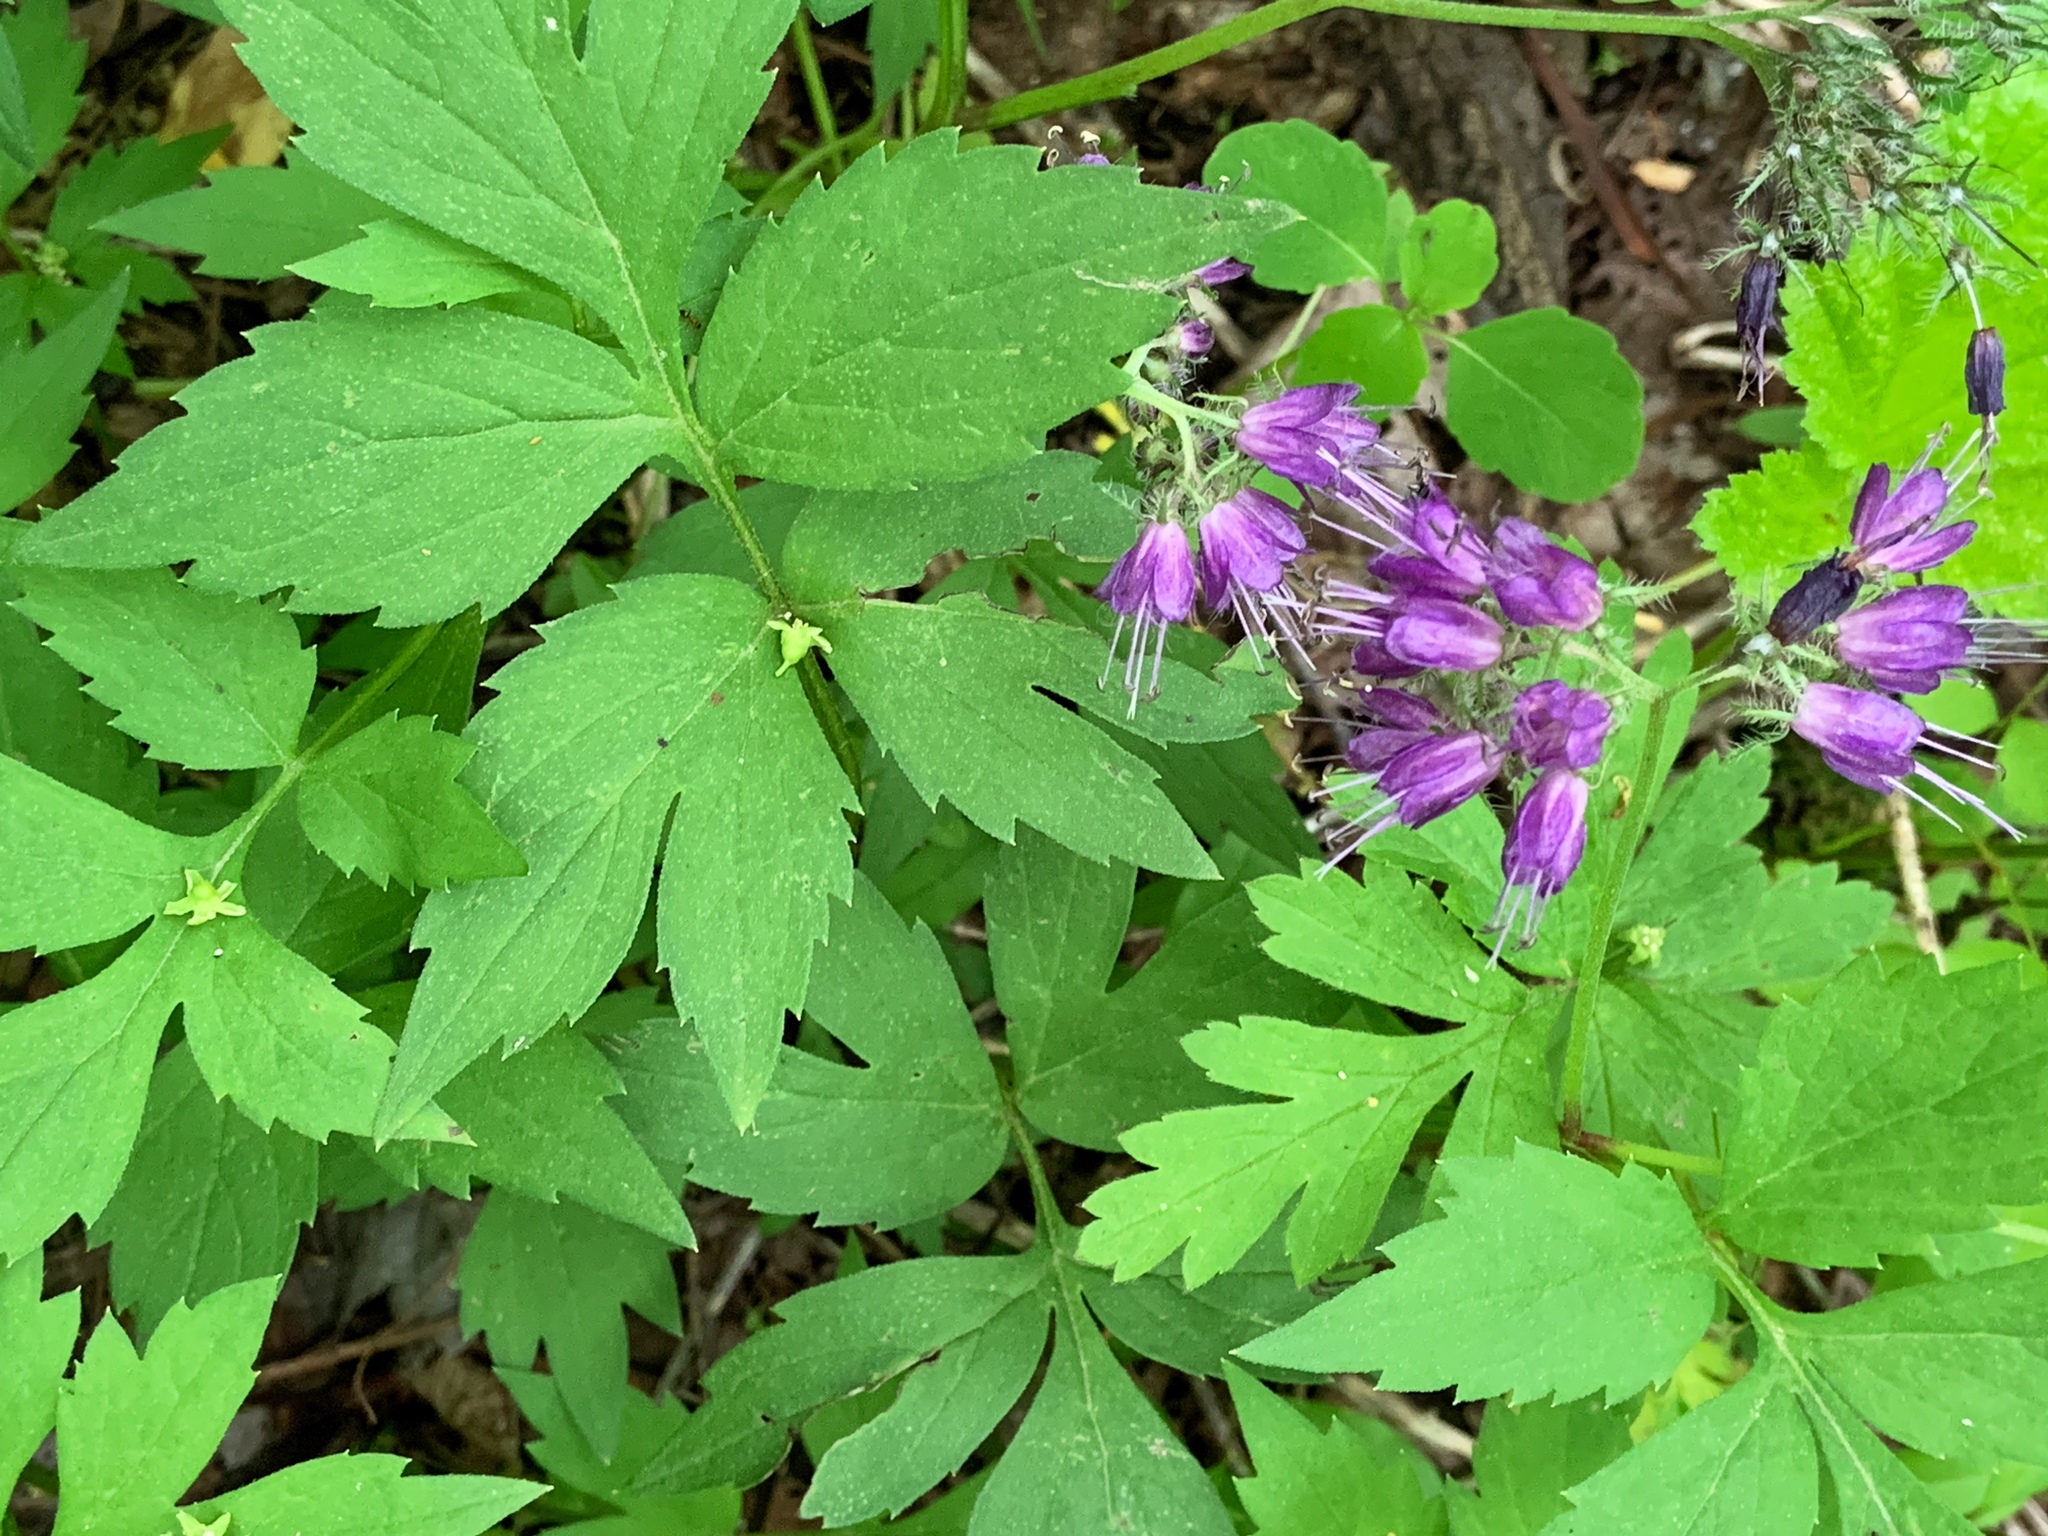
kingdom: Plantae
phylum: Tracheophyta
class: Magnoliopsida
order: Boraginales
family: Hydrophyllaceae
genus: Hydrophyllum
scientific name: Hydrophyllum virginianum
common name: Virginia waterleaf
